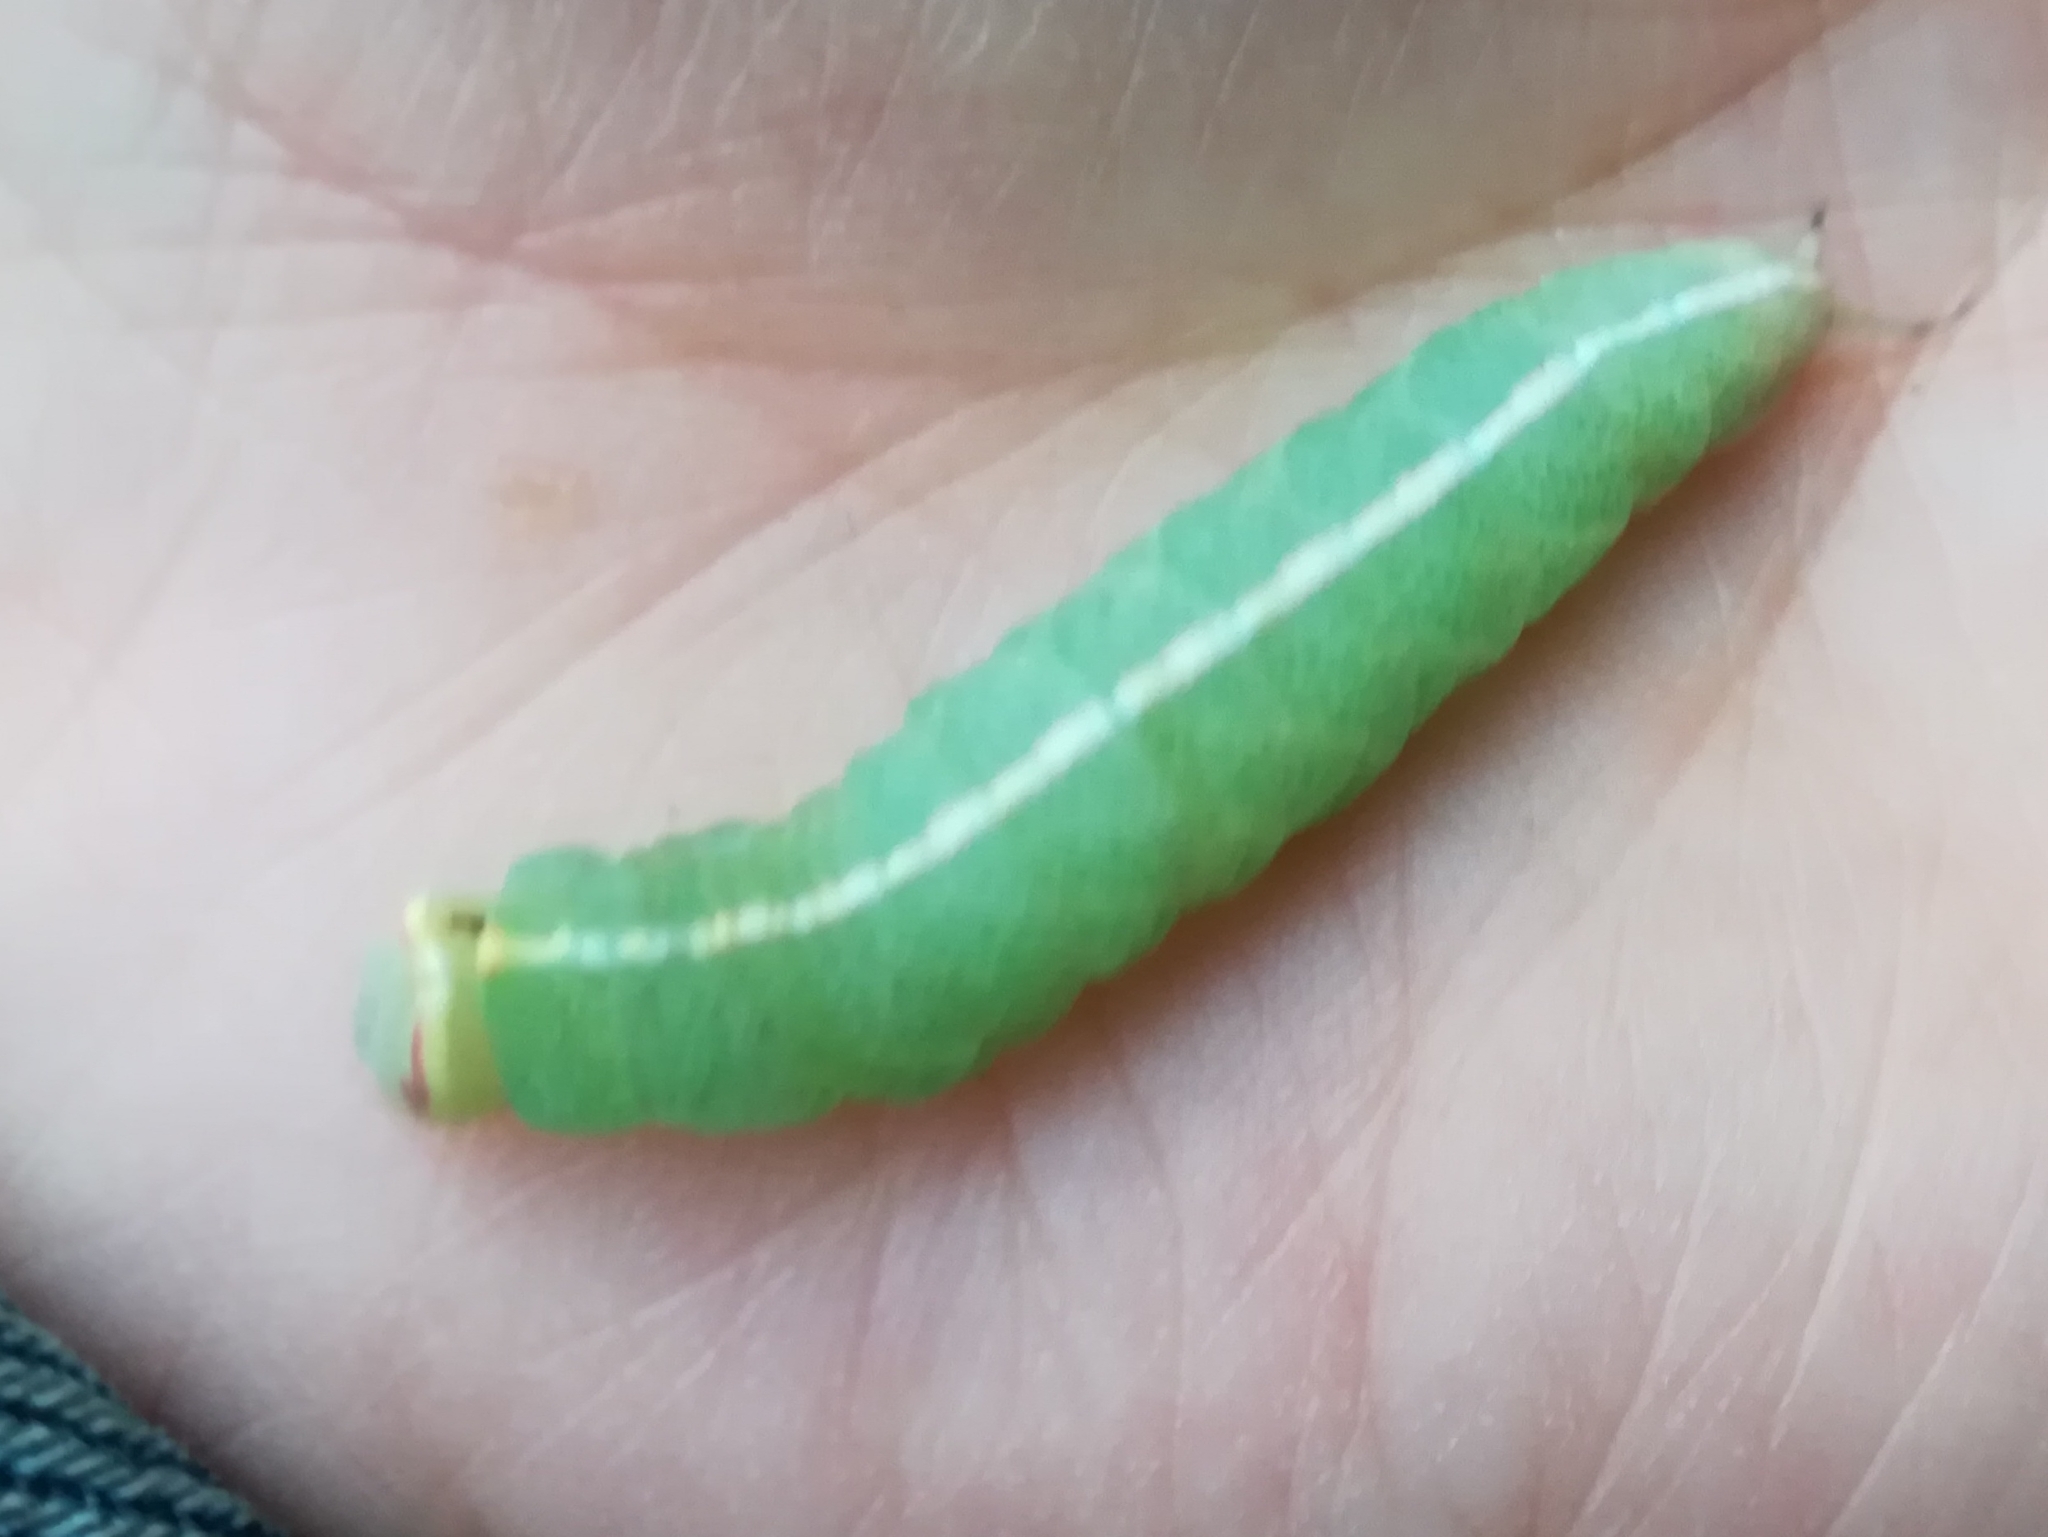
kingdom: Animalia
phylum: Arthropoda
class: Insecta
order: Lepidoptera
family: Notodontidae
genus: Macrurocampa
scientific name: Macrurocampa marthesia
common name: Mottled prominent
